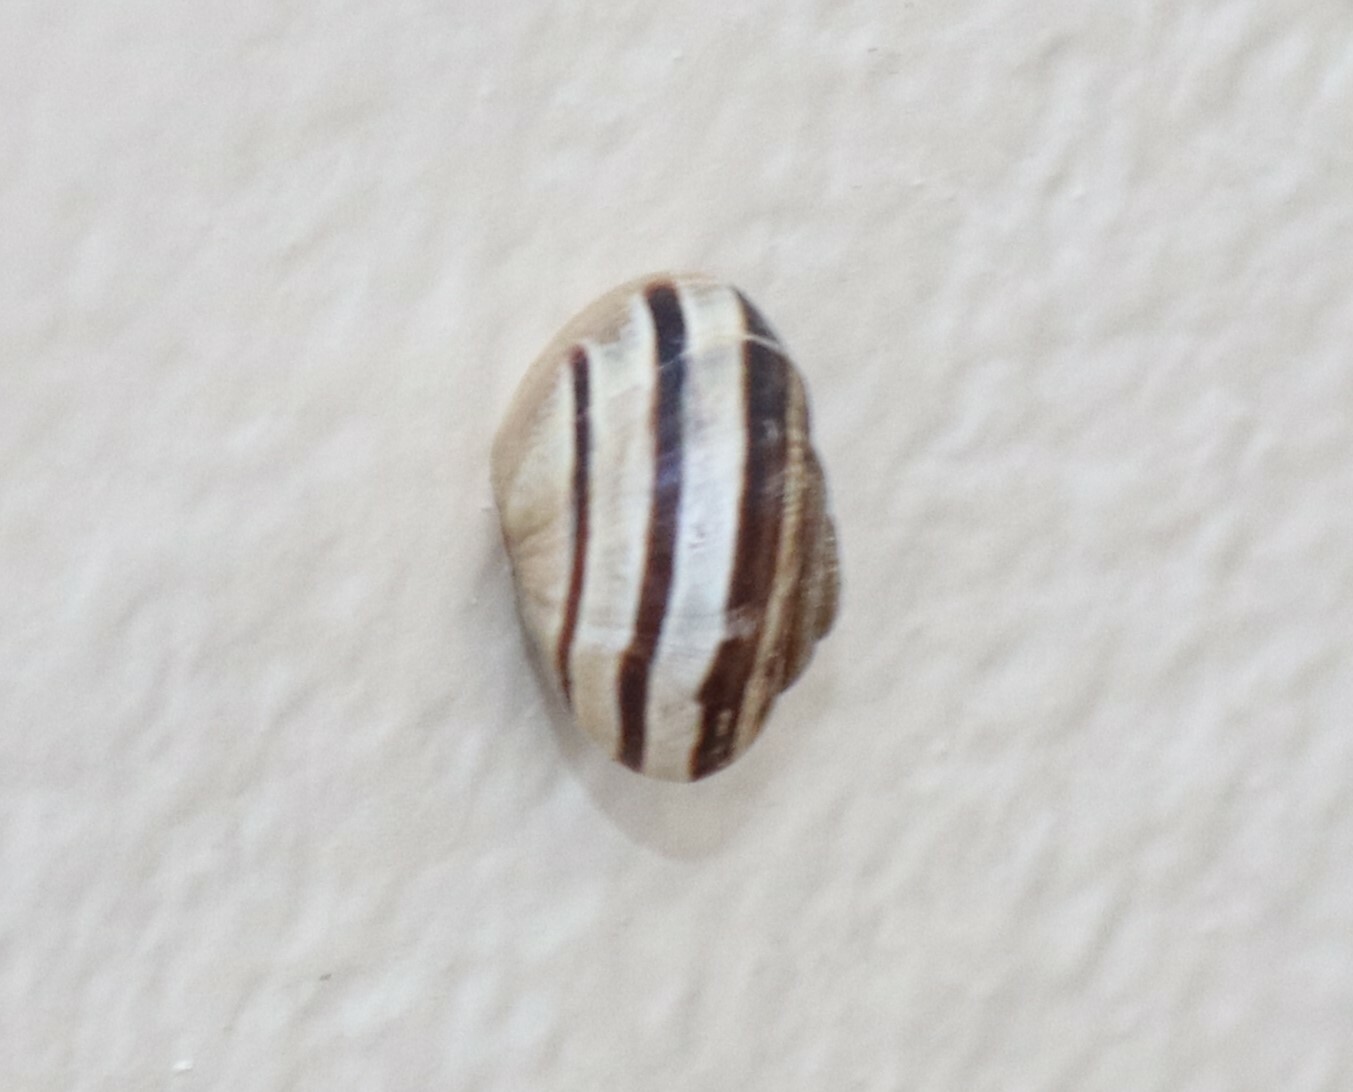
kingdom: Animalia
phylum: Mollusca
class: Gastropoda
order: Stylommatophora
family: Helicidae
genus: Eobania
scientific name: Eobania vermiculata
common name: Chocolateband snail
